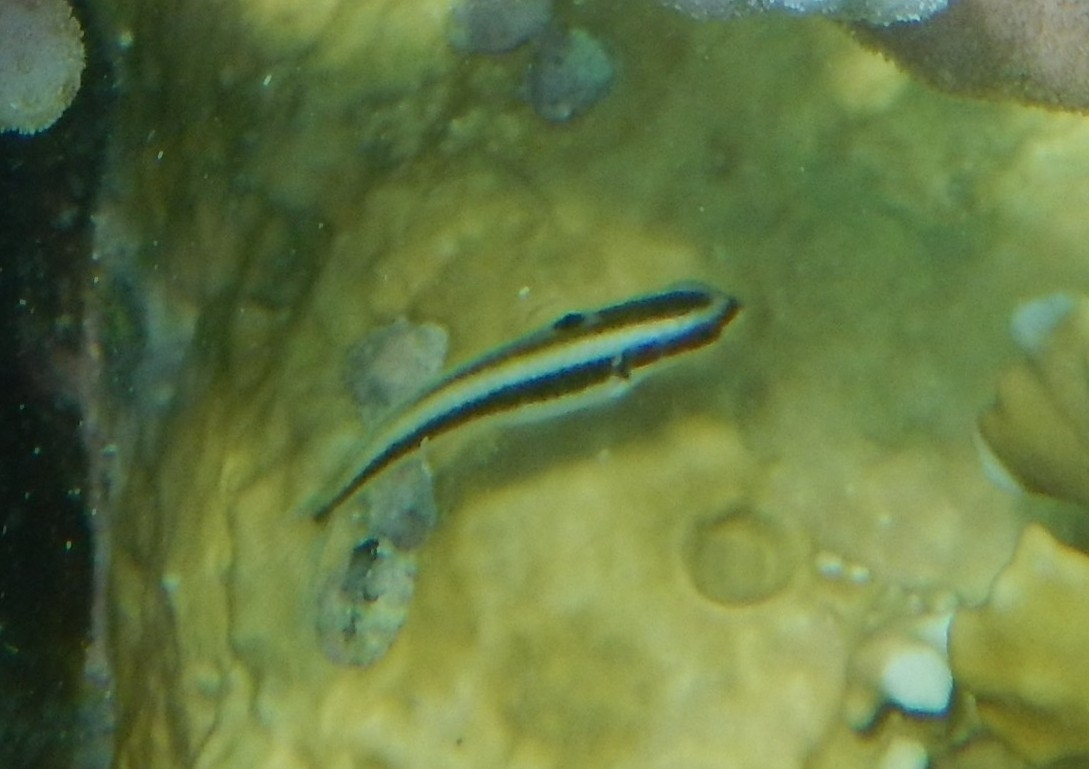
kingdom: Animalia
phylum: Chordata
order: Perciformes
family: Labridae
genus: Thalassoma
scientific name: Thalassoma bifasciatum
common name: Bluehead wrasse
